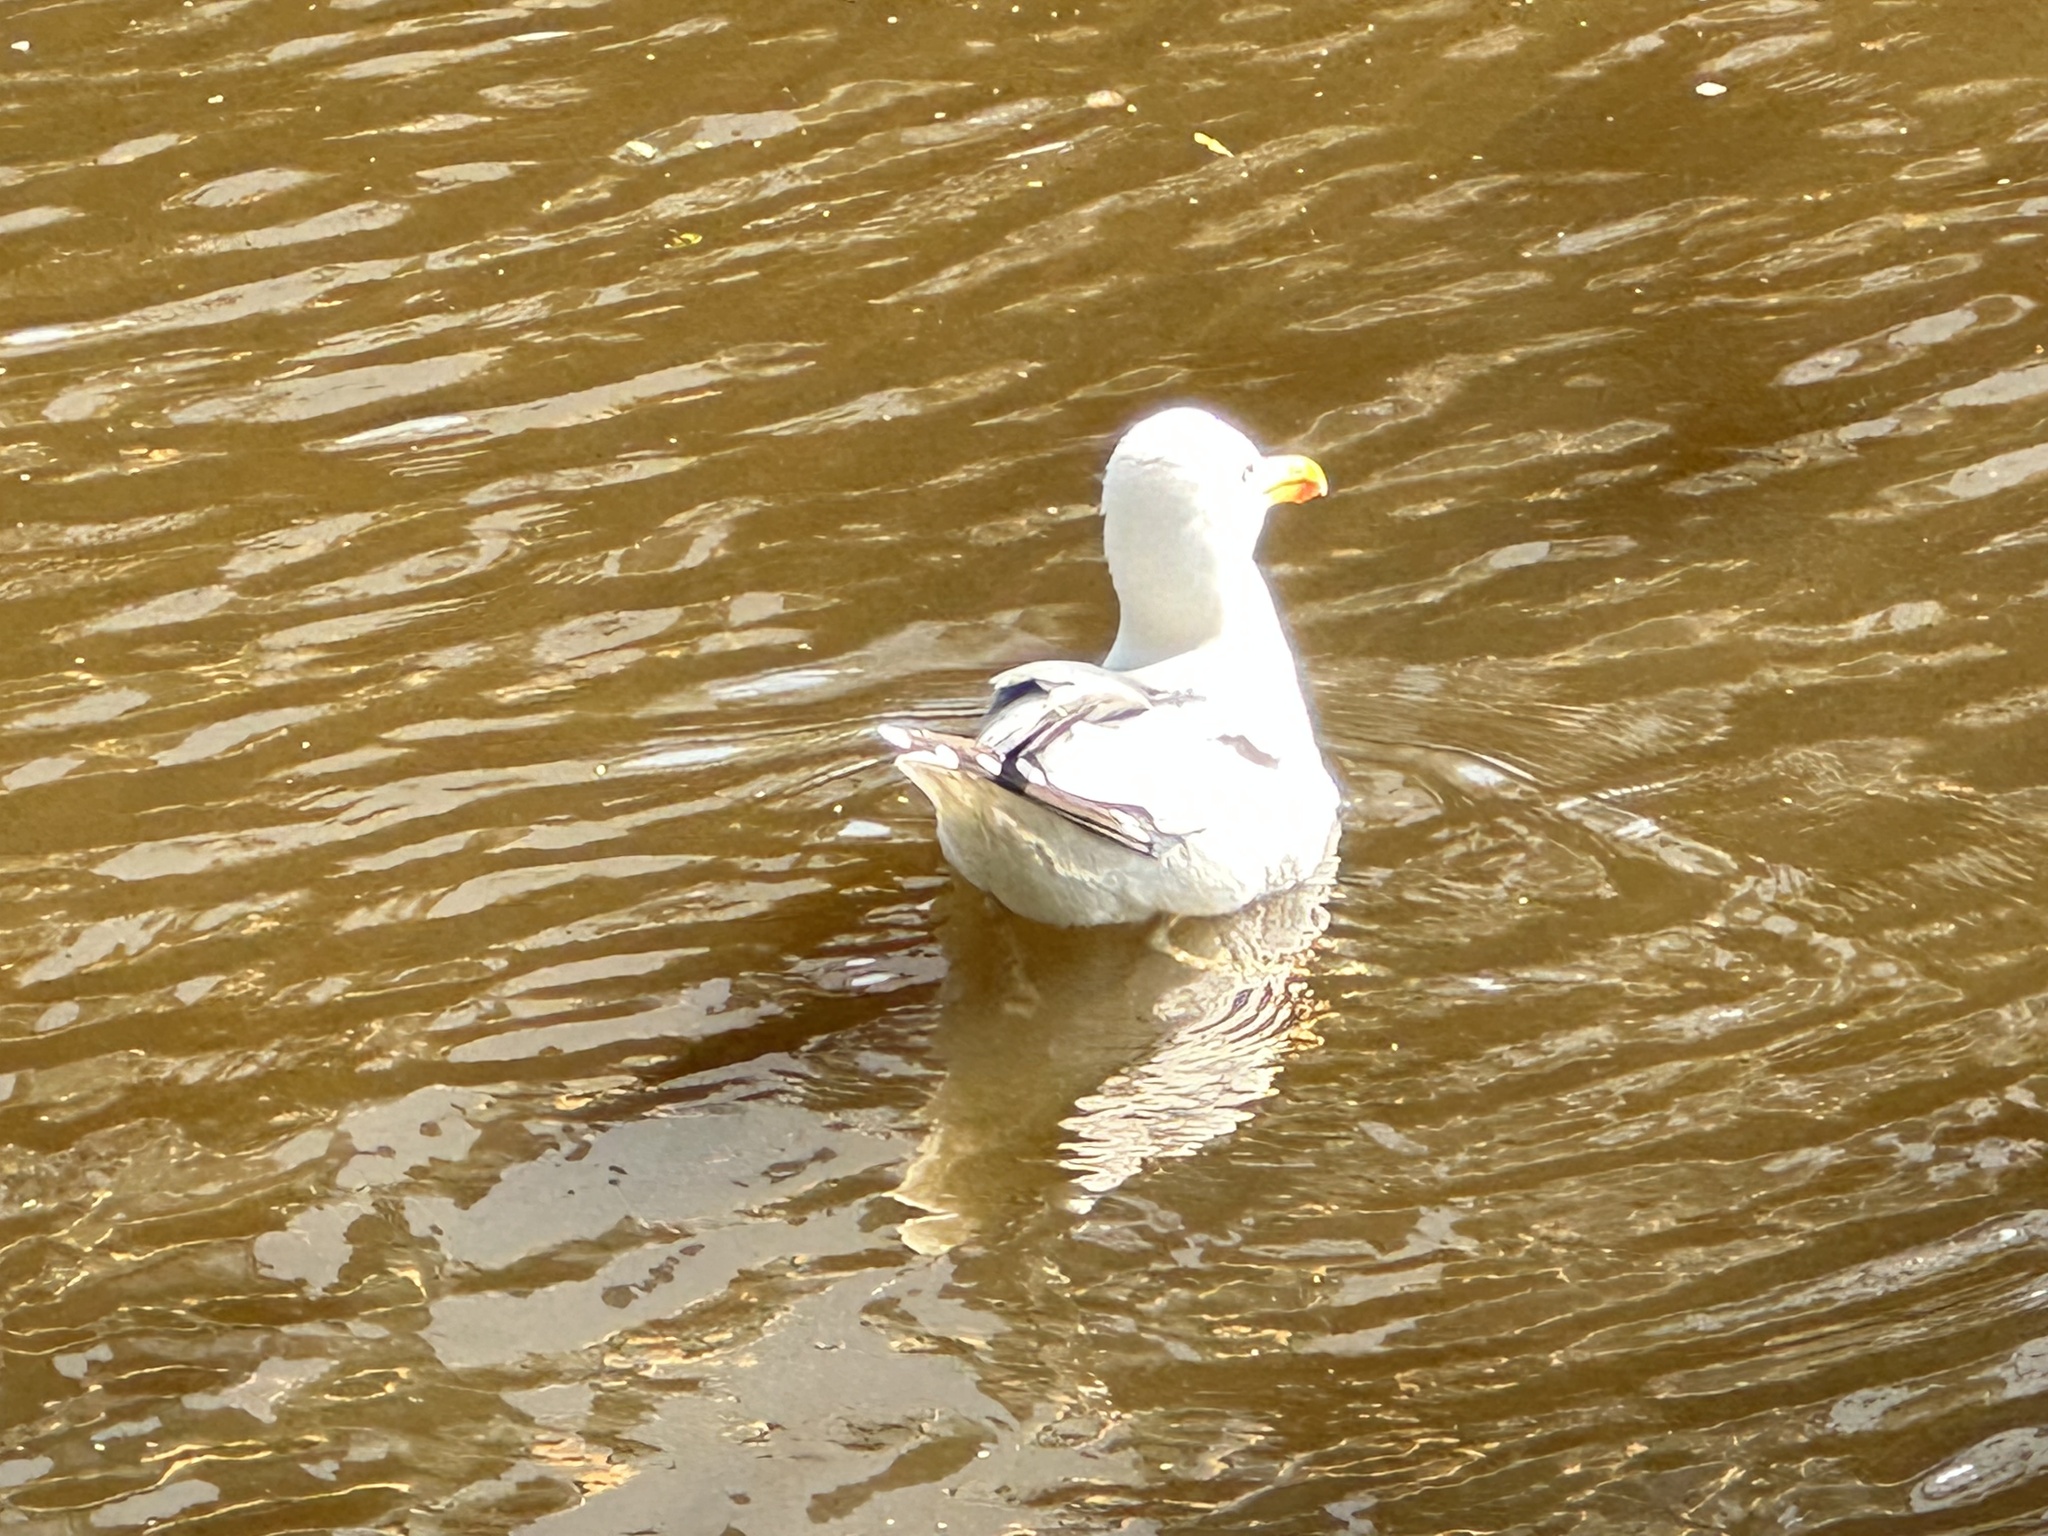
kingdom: Animalia
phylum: Chordata
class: Aves
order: Charadriiformes
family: Laridae
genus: Larus
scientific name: Larus argentatus
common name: Herring gull
